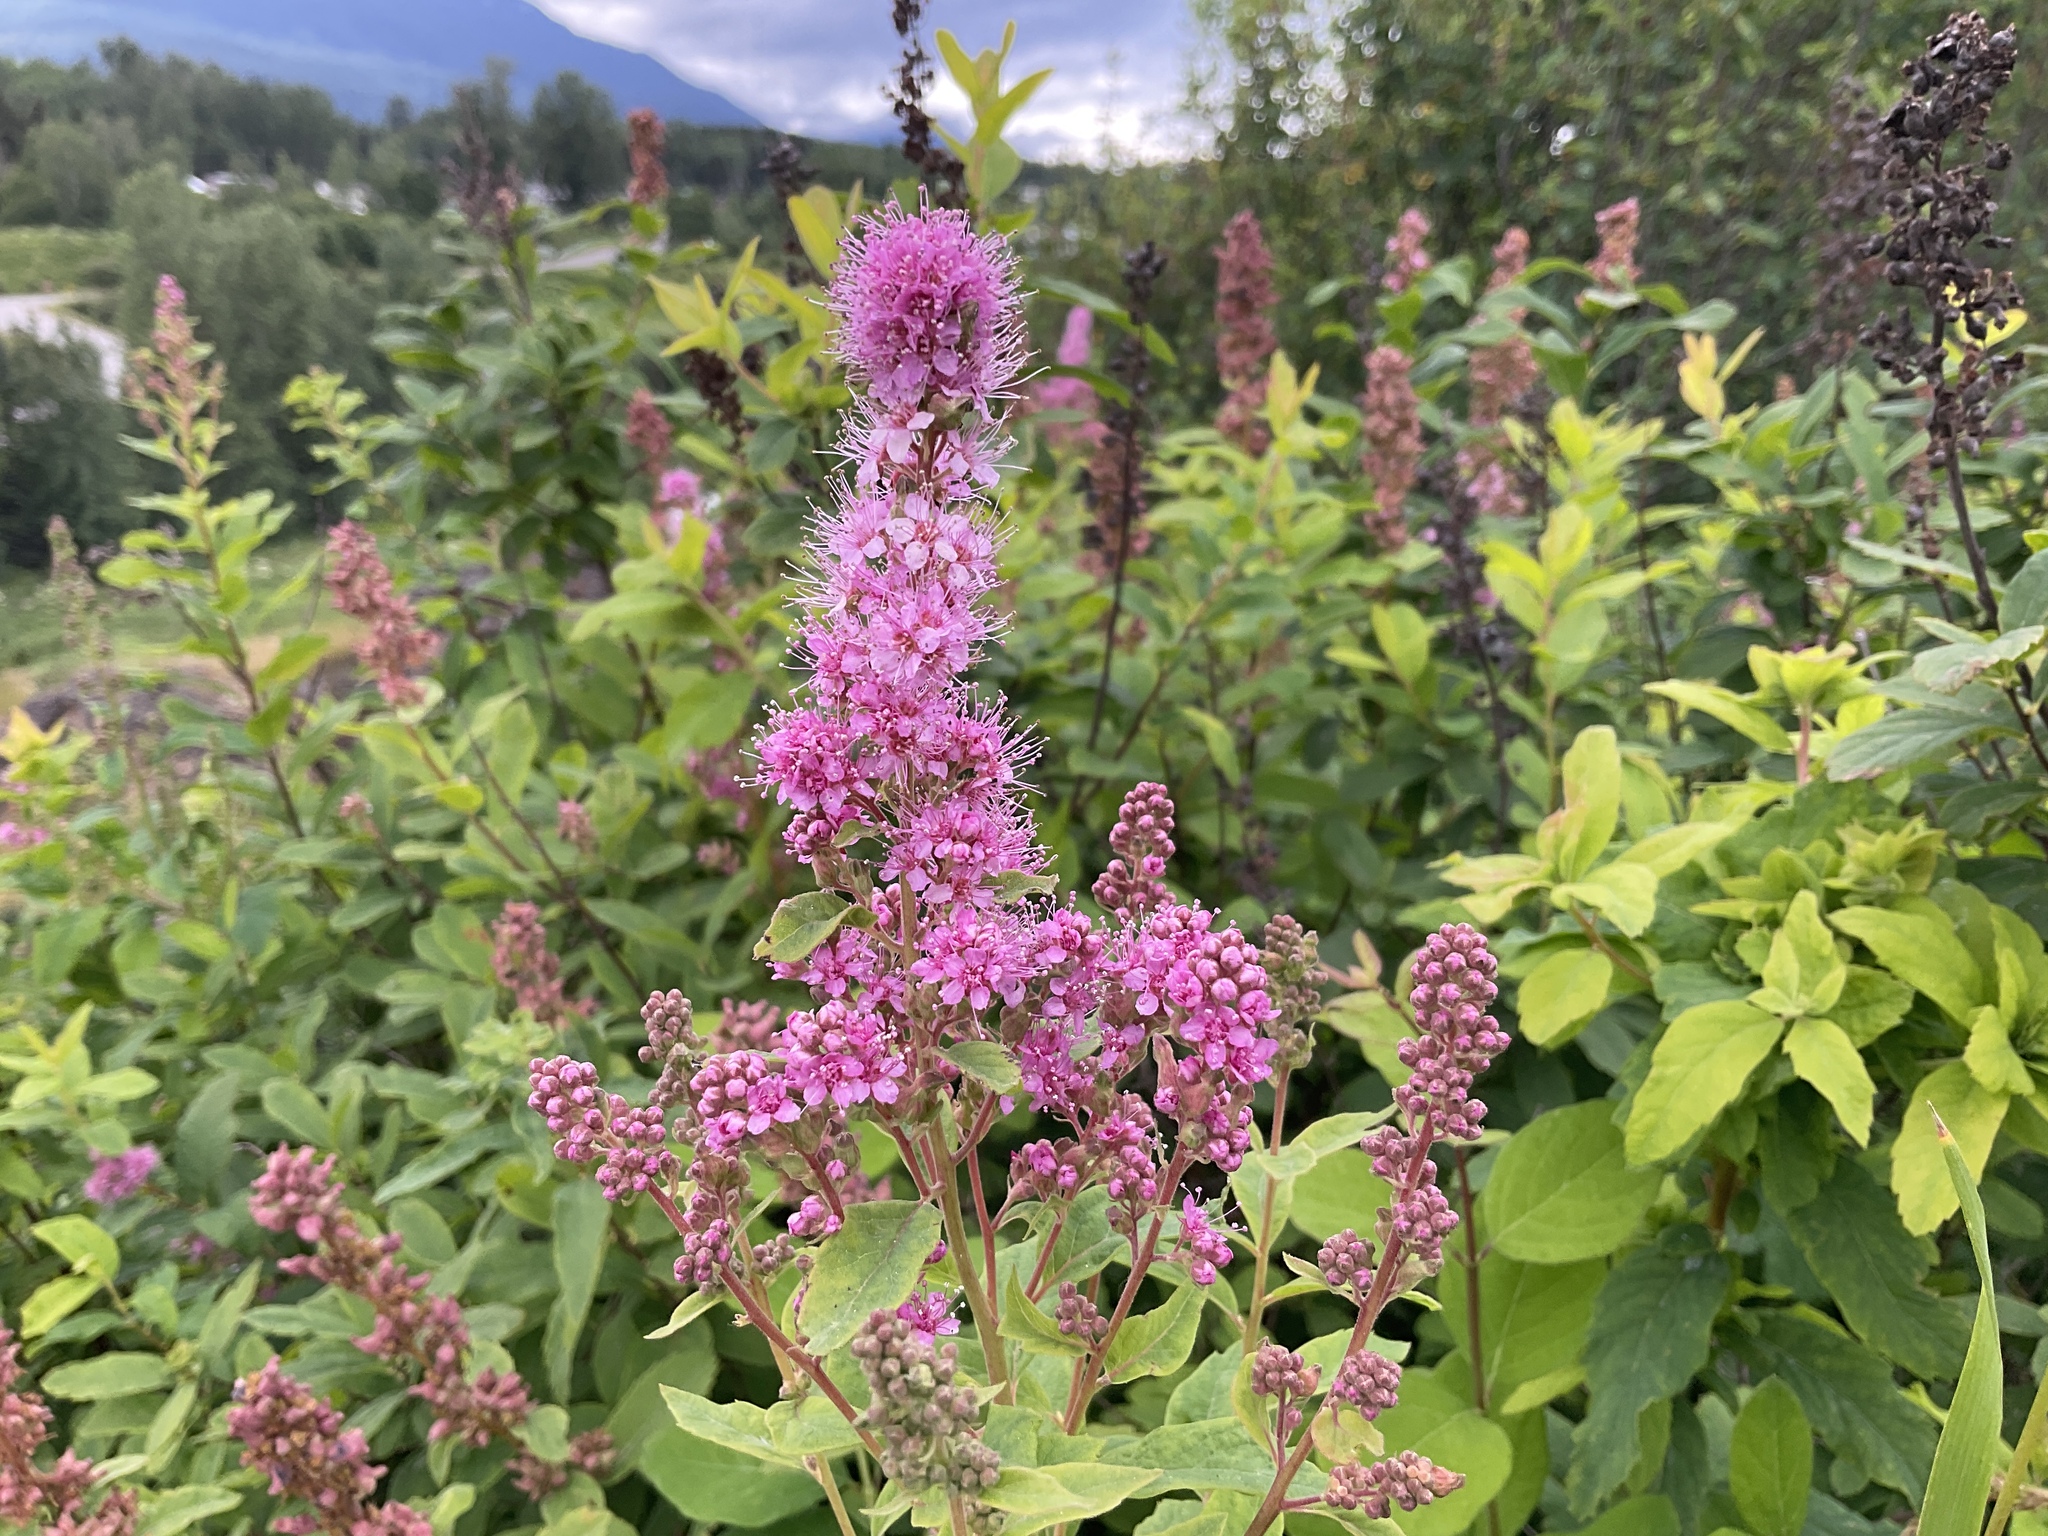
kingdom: Plantae
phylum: Tracheophyta
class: Magnoliopsida
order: Rosales
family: Rosaceae
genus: Spiraea
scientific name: Spiraea douglasii
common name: Steeplebush
